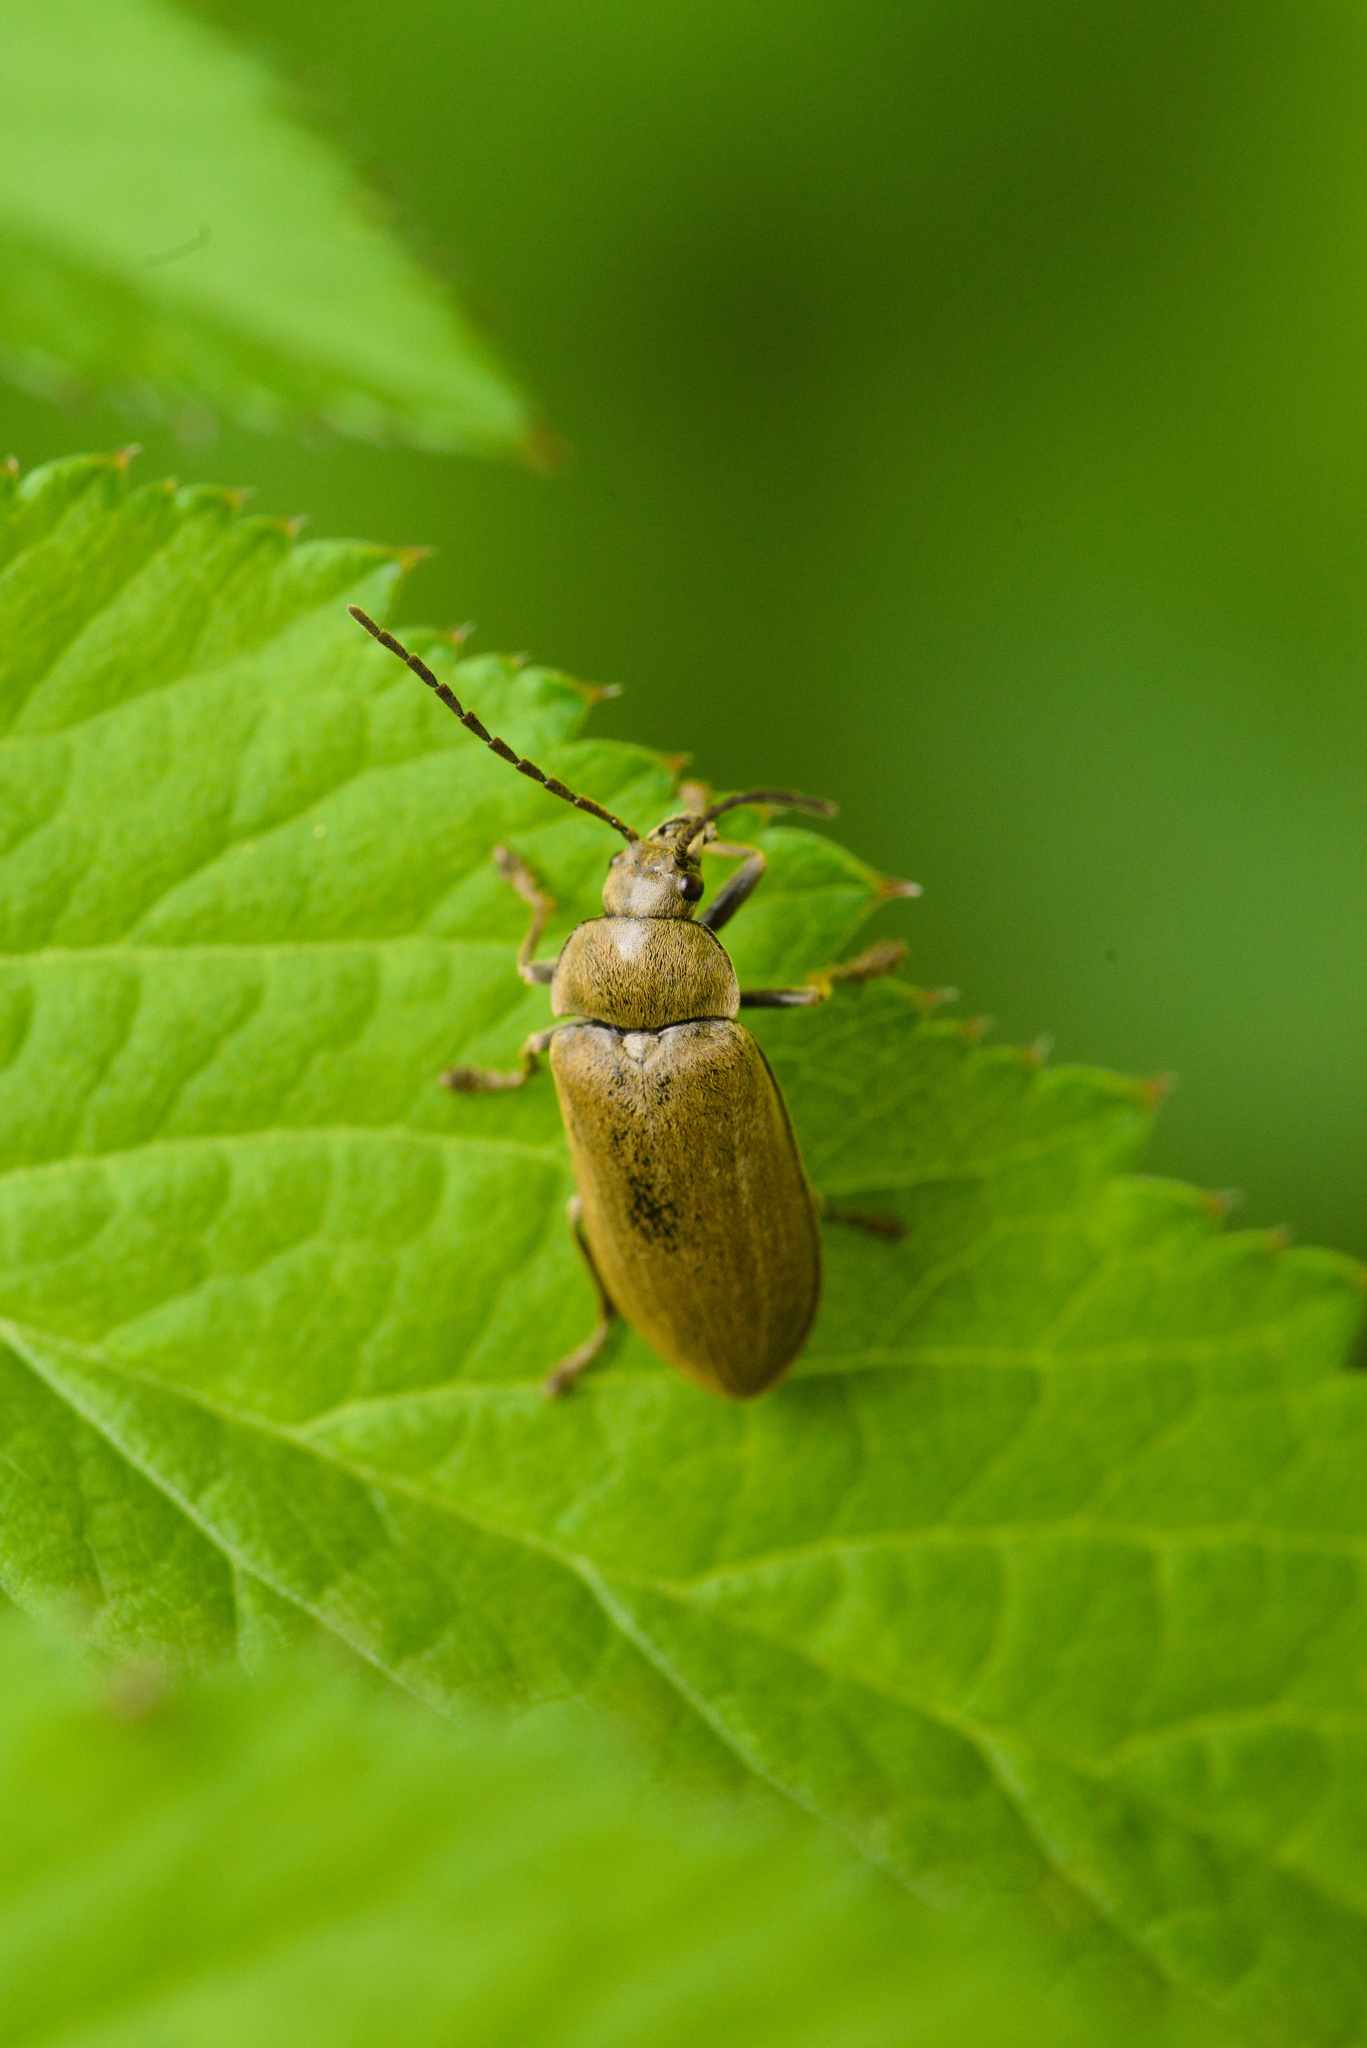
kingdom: Animalia
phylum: Arthropoda
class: Insecta
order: Coleoptera
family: Dascillidae
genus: Dascillus
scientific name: Dascillus cervinus
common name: Orchid beetle
